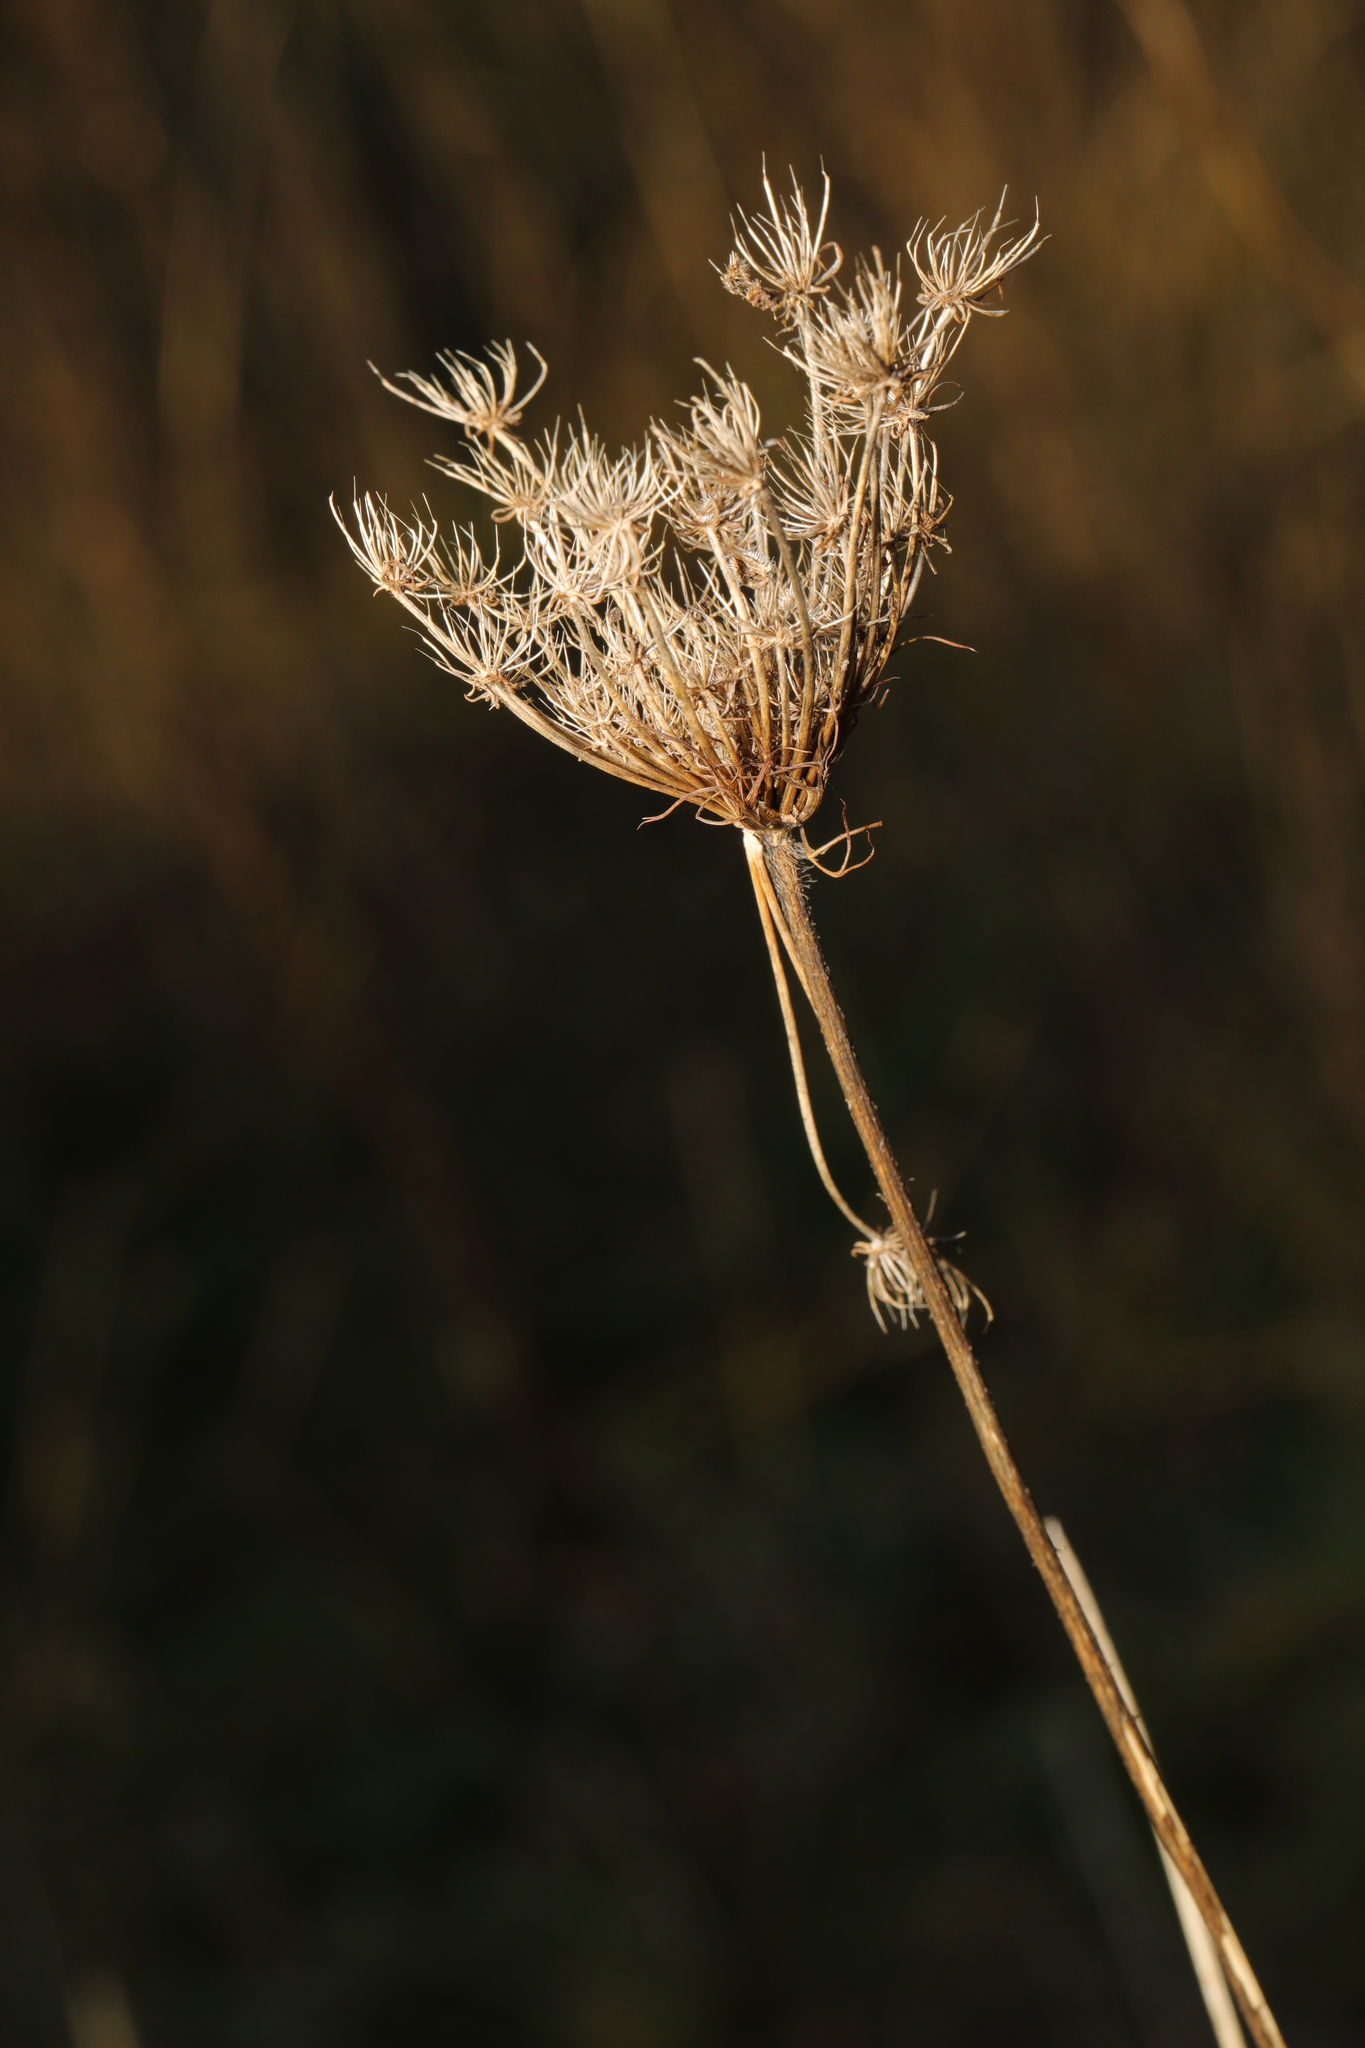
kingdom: Plantae
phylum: Tracheophyta
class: Magnoliopsida
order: Apiales
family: Apiaceae
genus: Daucus
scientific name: Daucus carota
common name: Wild carrot
